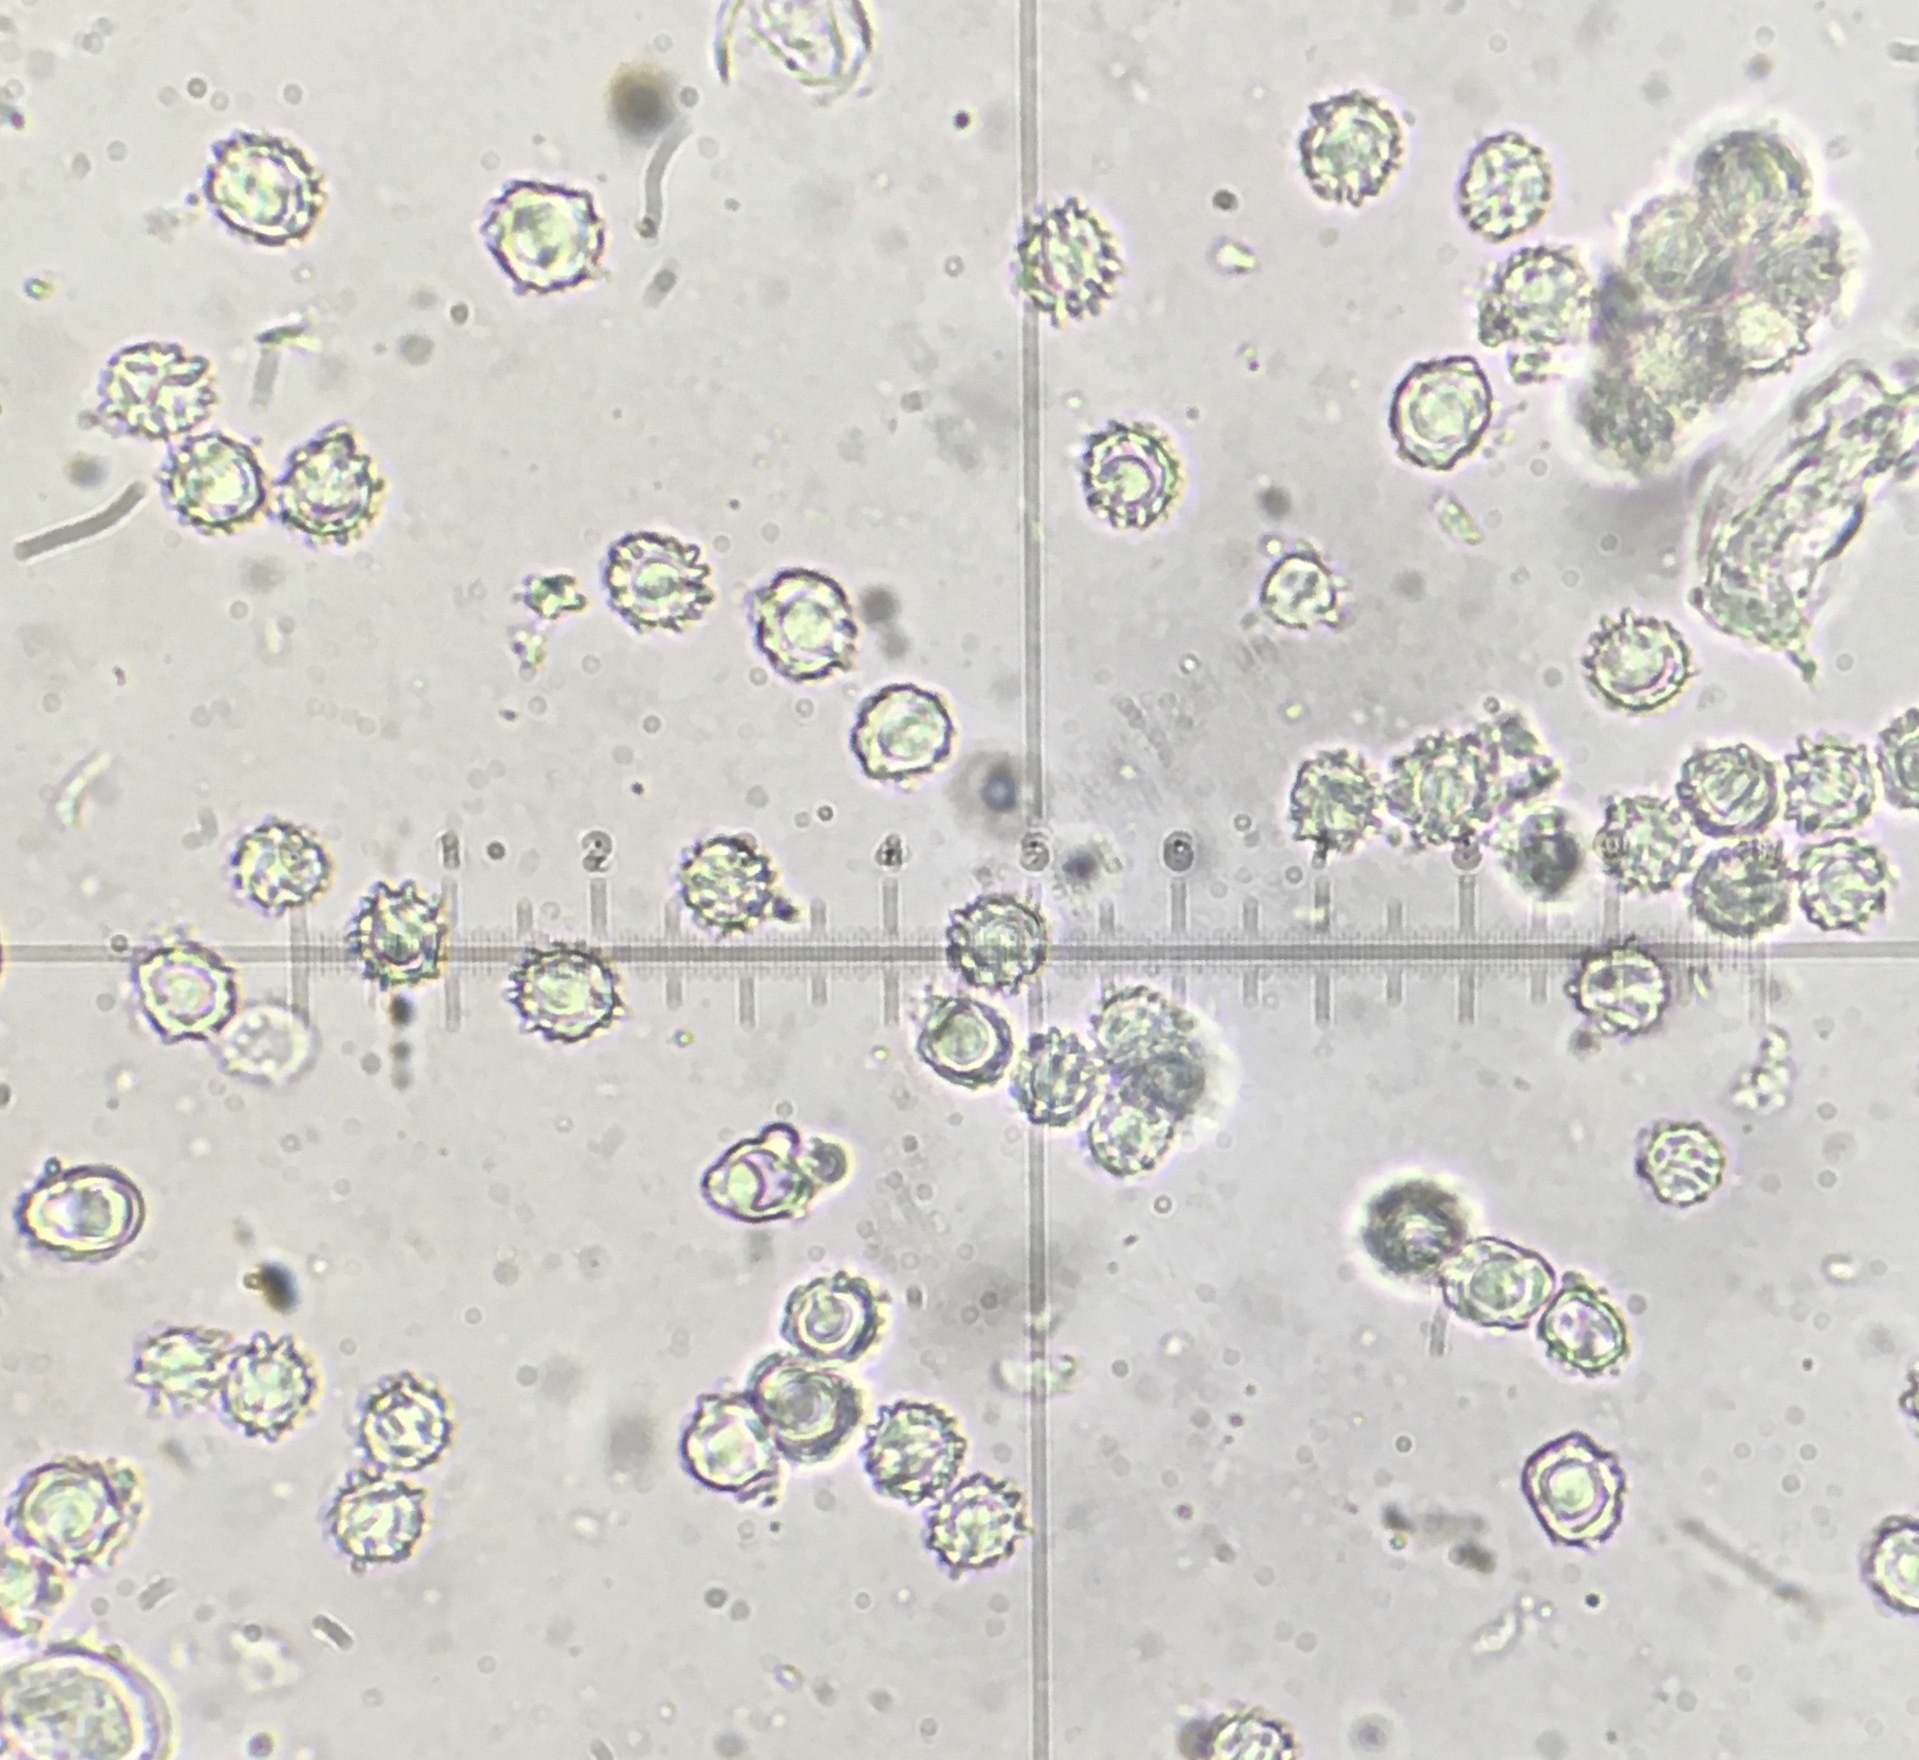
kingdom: Fungi
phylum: Basidiomycota
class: Agaricomycetes
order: Russulales
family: Bondarzewiaceae
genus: Bondarzewia
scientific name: Bondarzewia berkeleyi
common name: Berkeley's polypore
